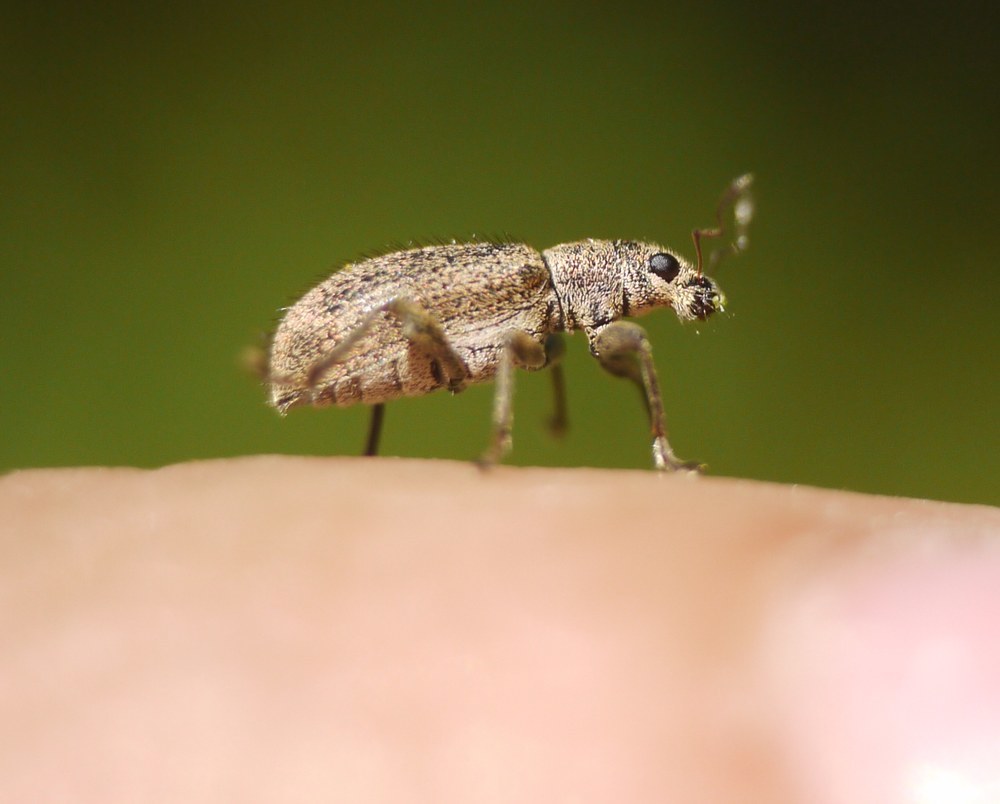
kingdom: Animalia
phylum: Arthropoda
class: Insecta
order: Coleoptera
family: Curculionidae
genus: Polydrusus
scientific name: Polydrusus piliferus
